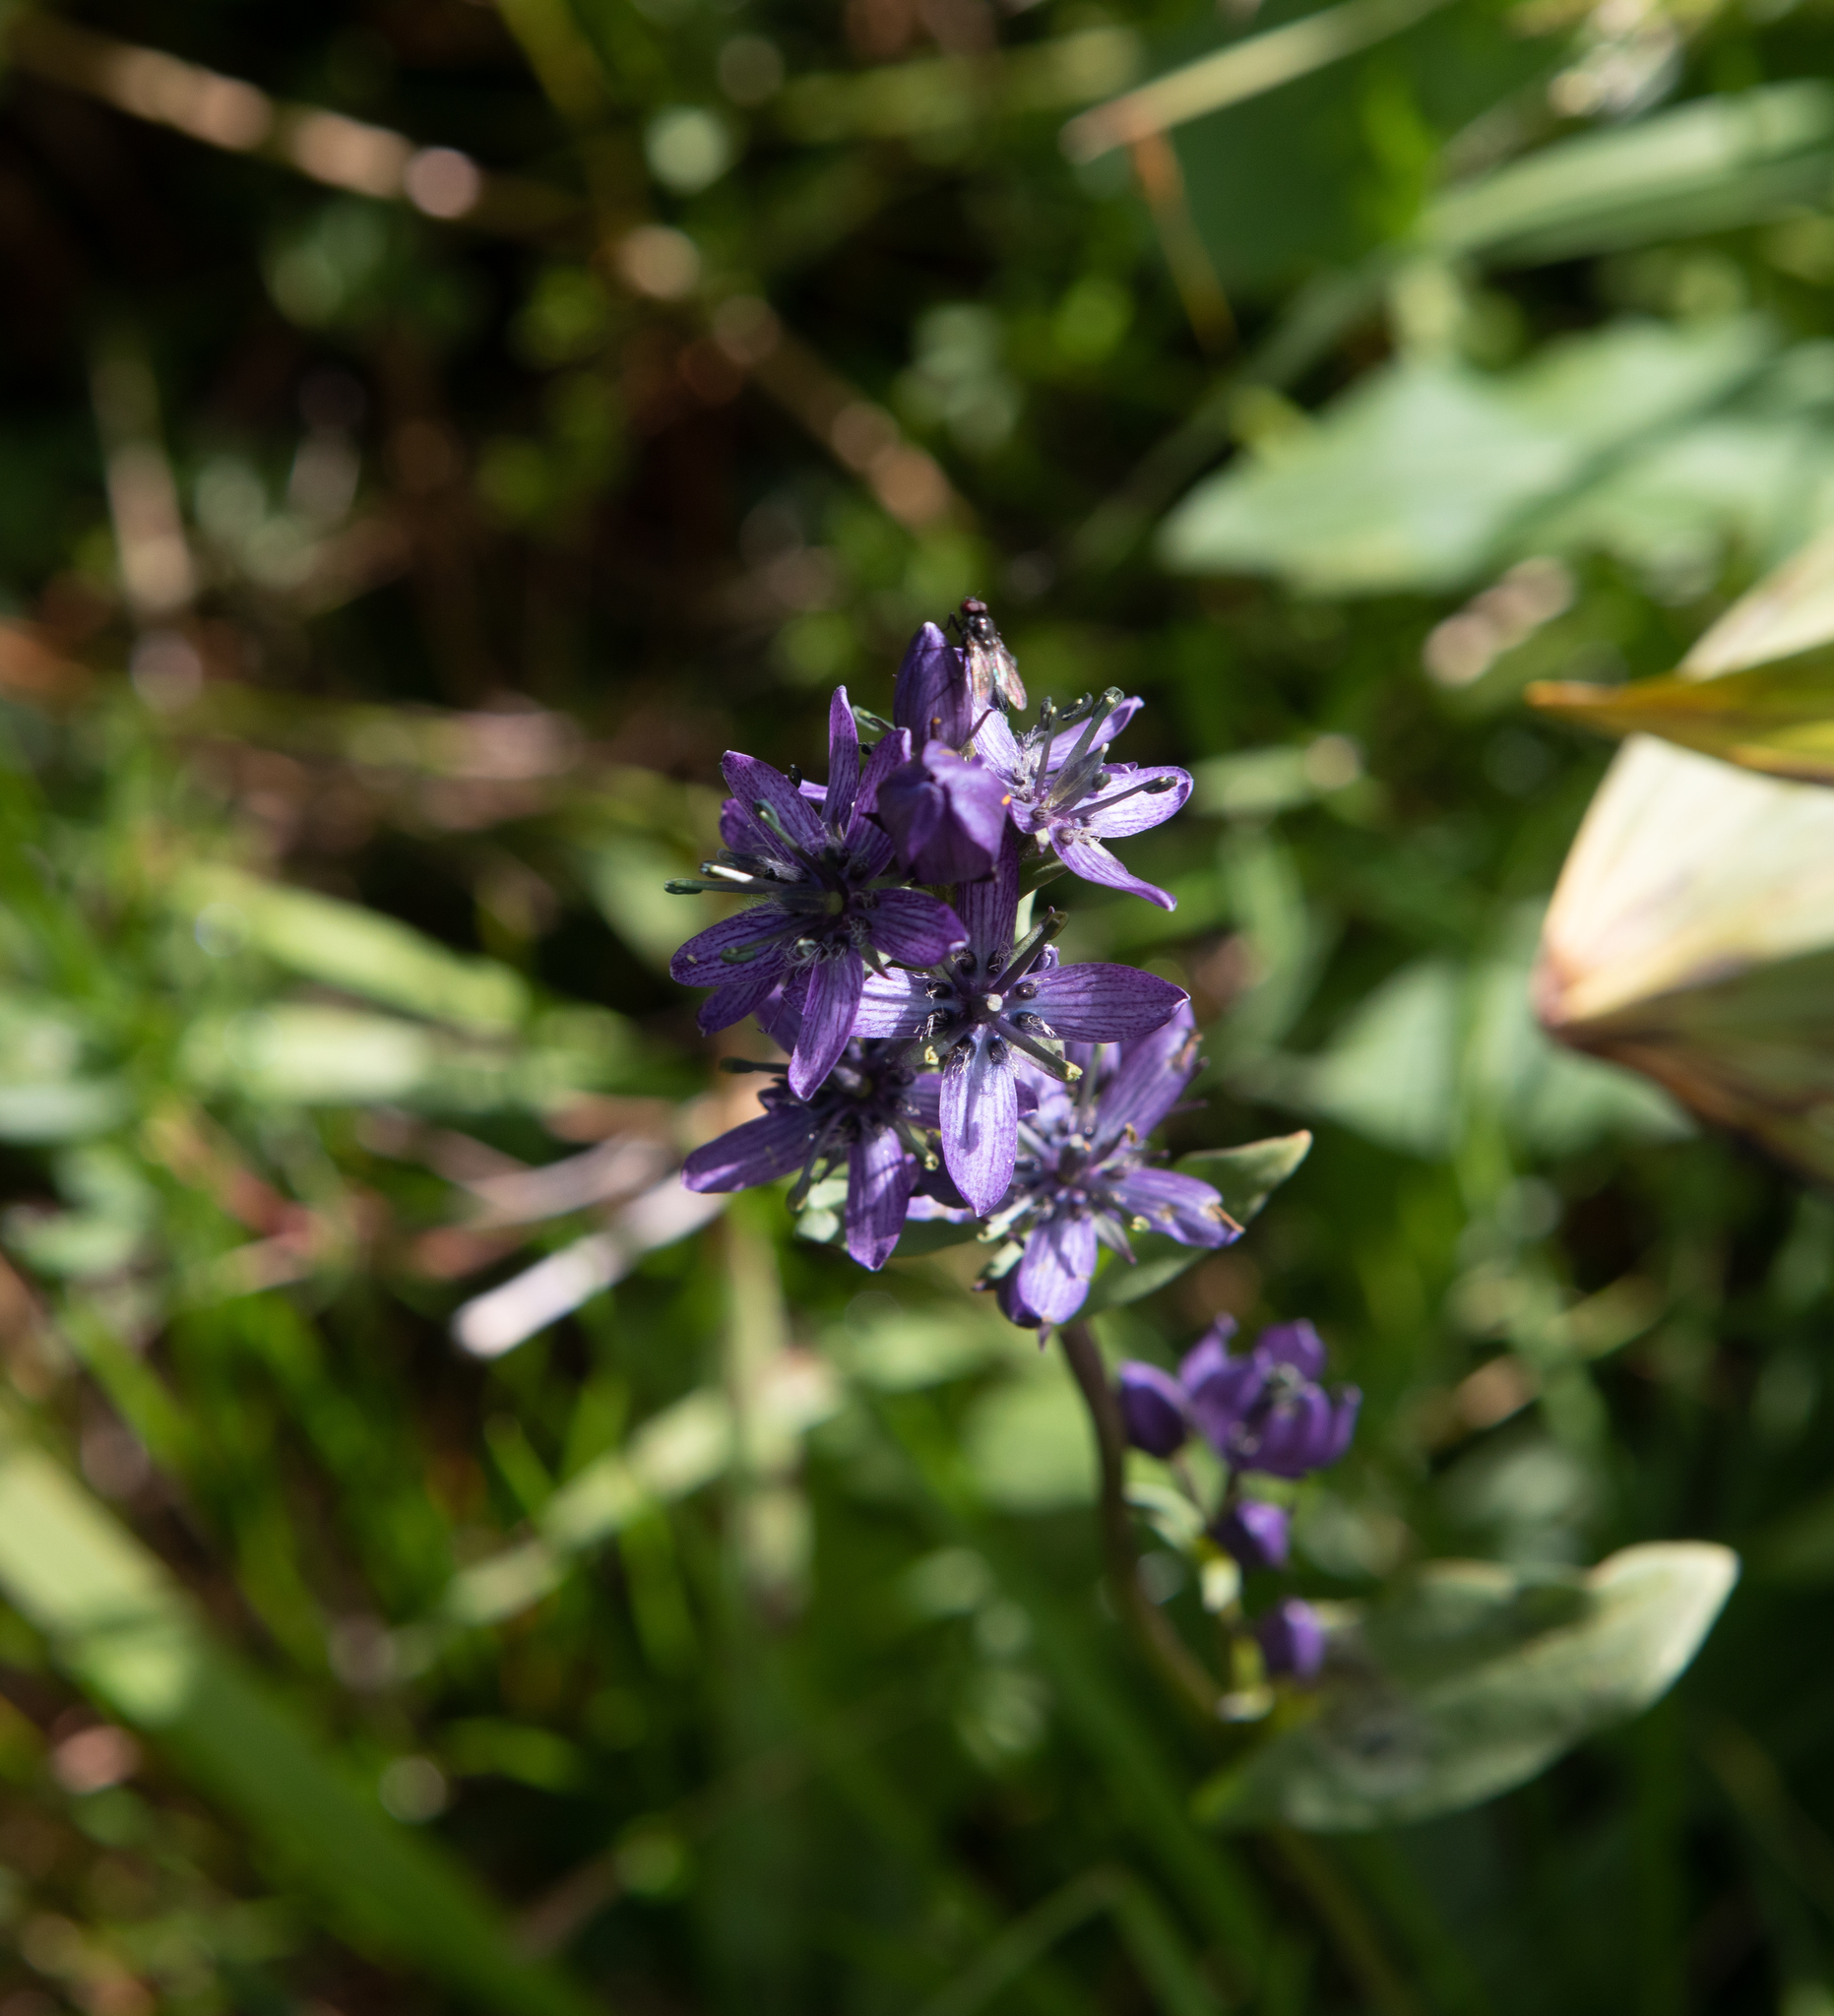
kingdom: Plantae
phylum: Tracheophyta
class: Magnoliopsida
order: Gentianales
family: Gentianaceae
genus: Swertia
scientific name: Swertia obtusa
